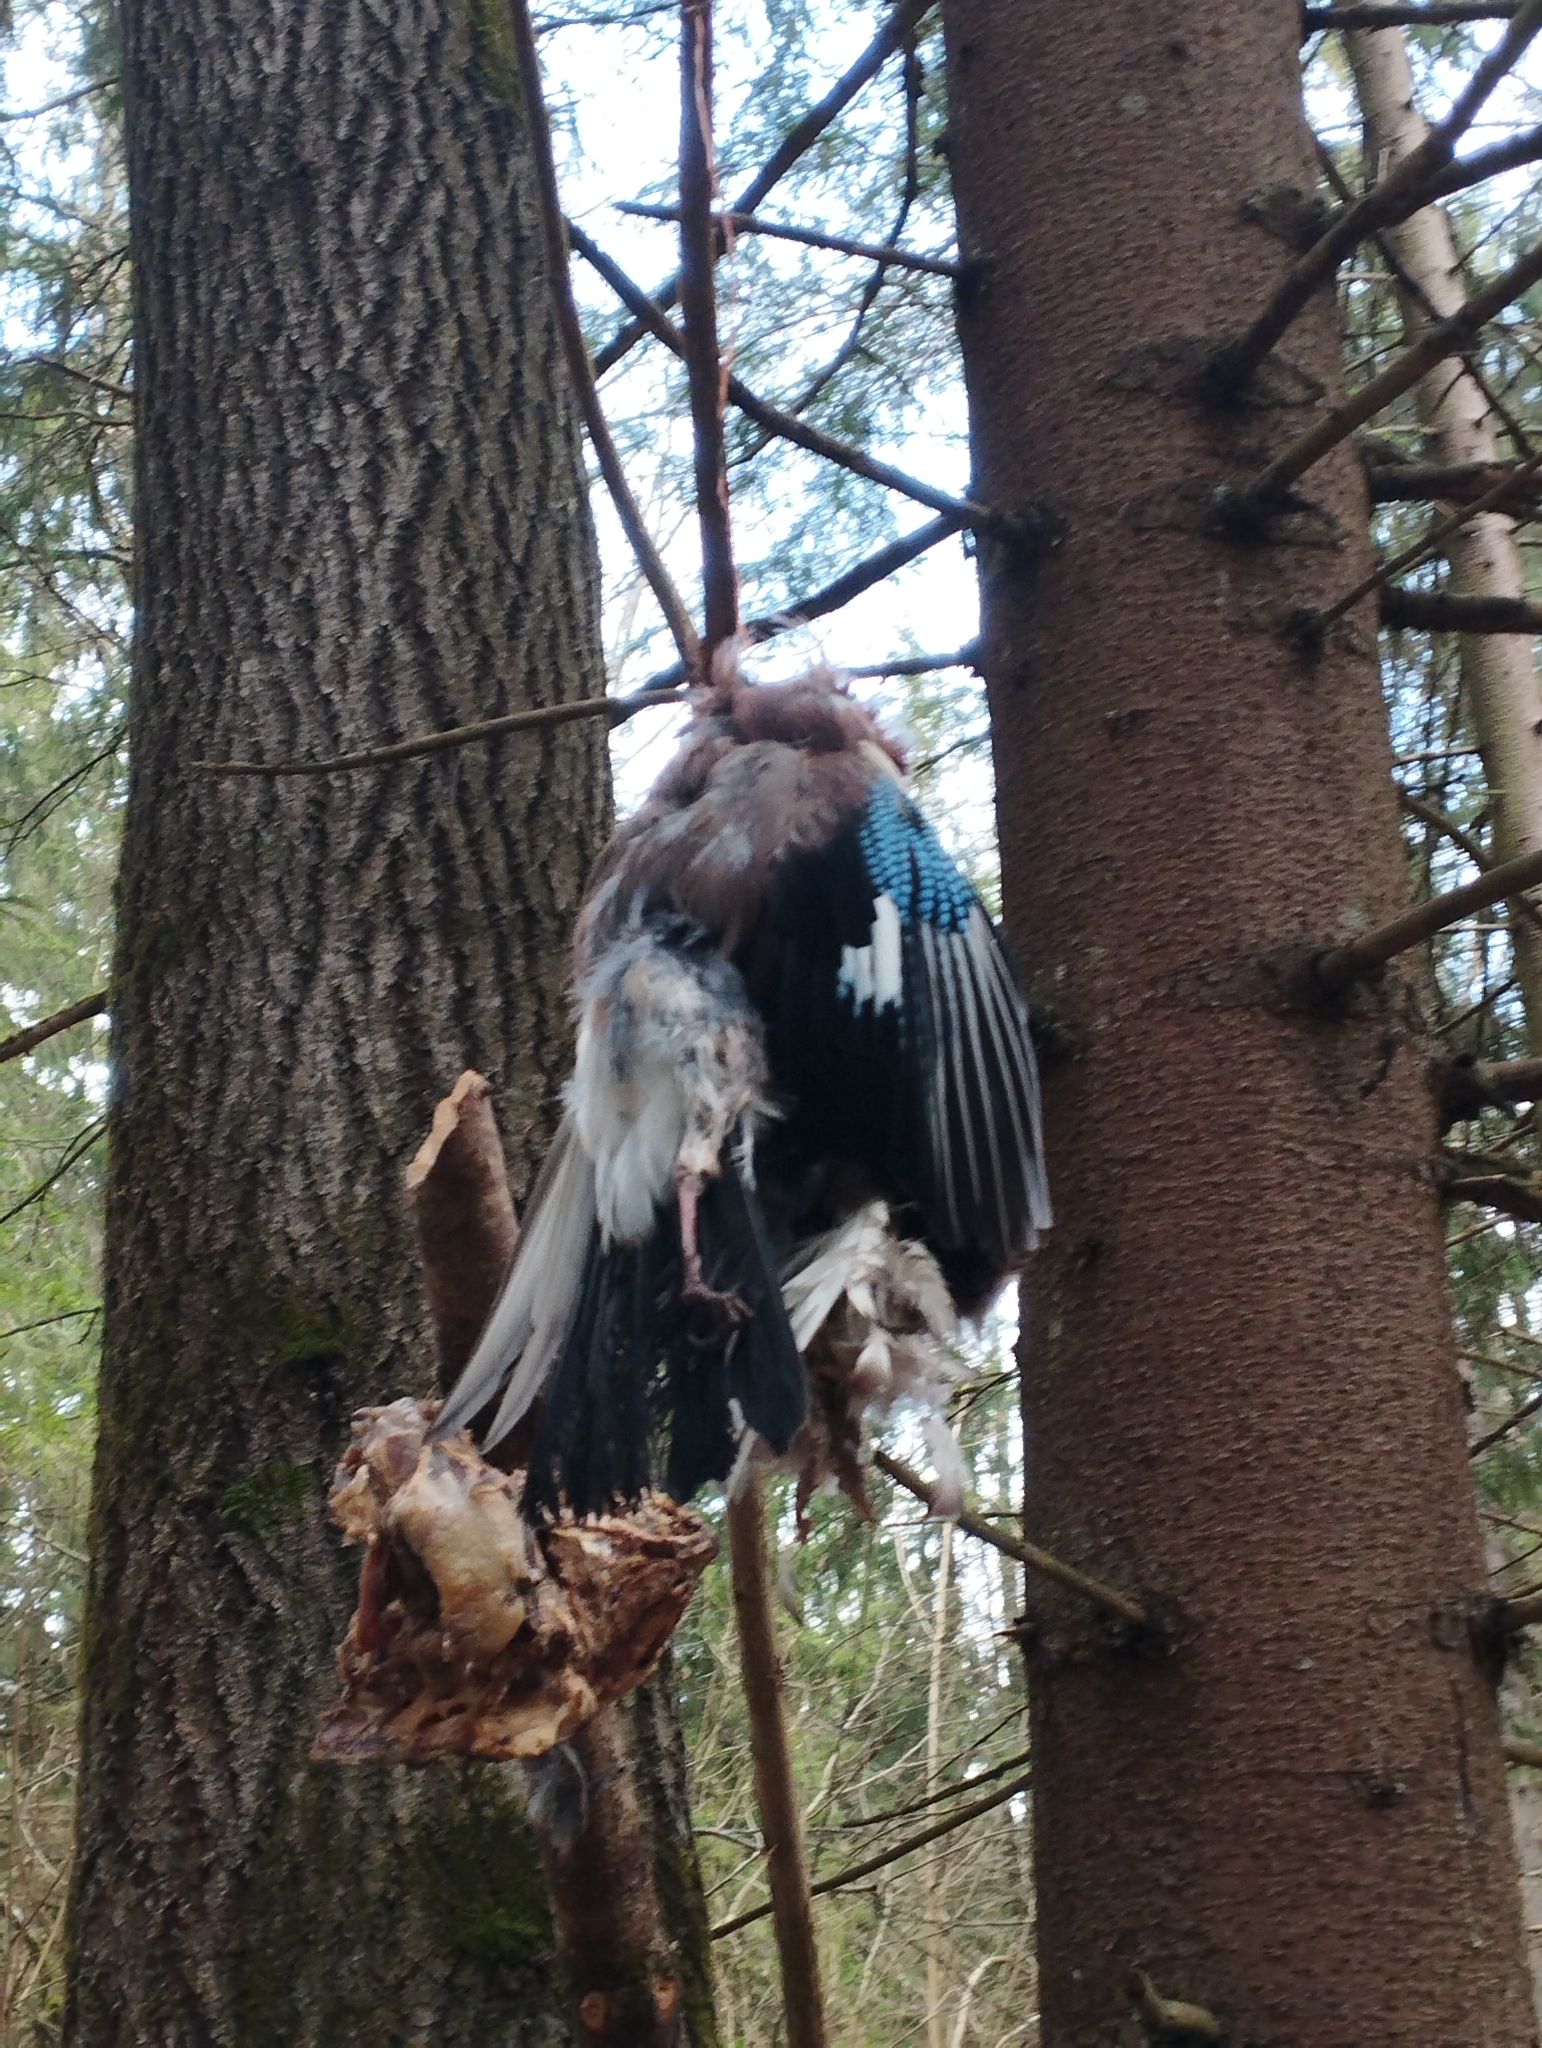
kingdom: Animalia
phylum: Chordata
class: Aves
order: Passeriformes
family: Corvidae
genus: Garrulus
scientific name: Garrulus glandarius
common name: Eurasian jay
